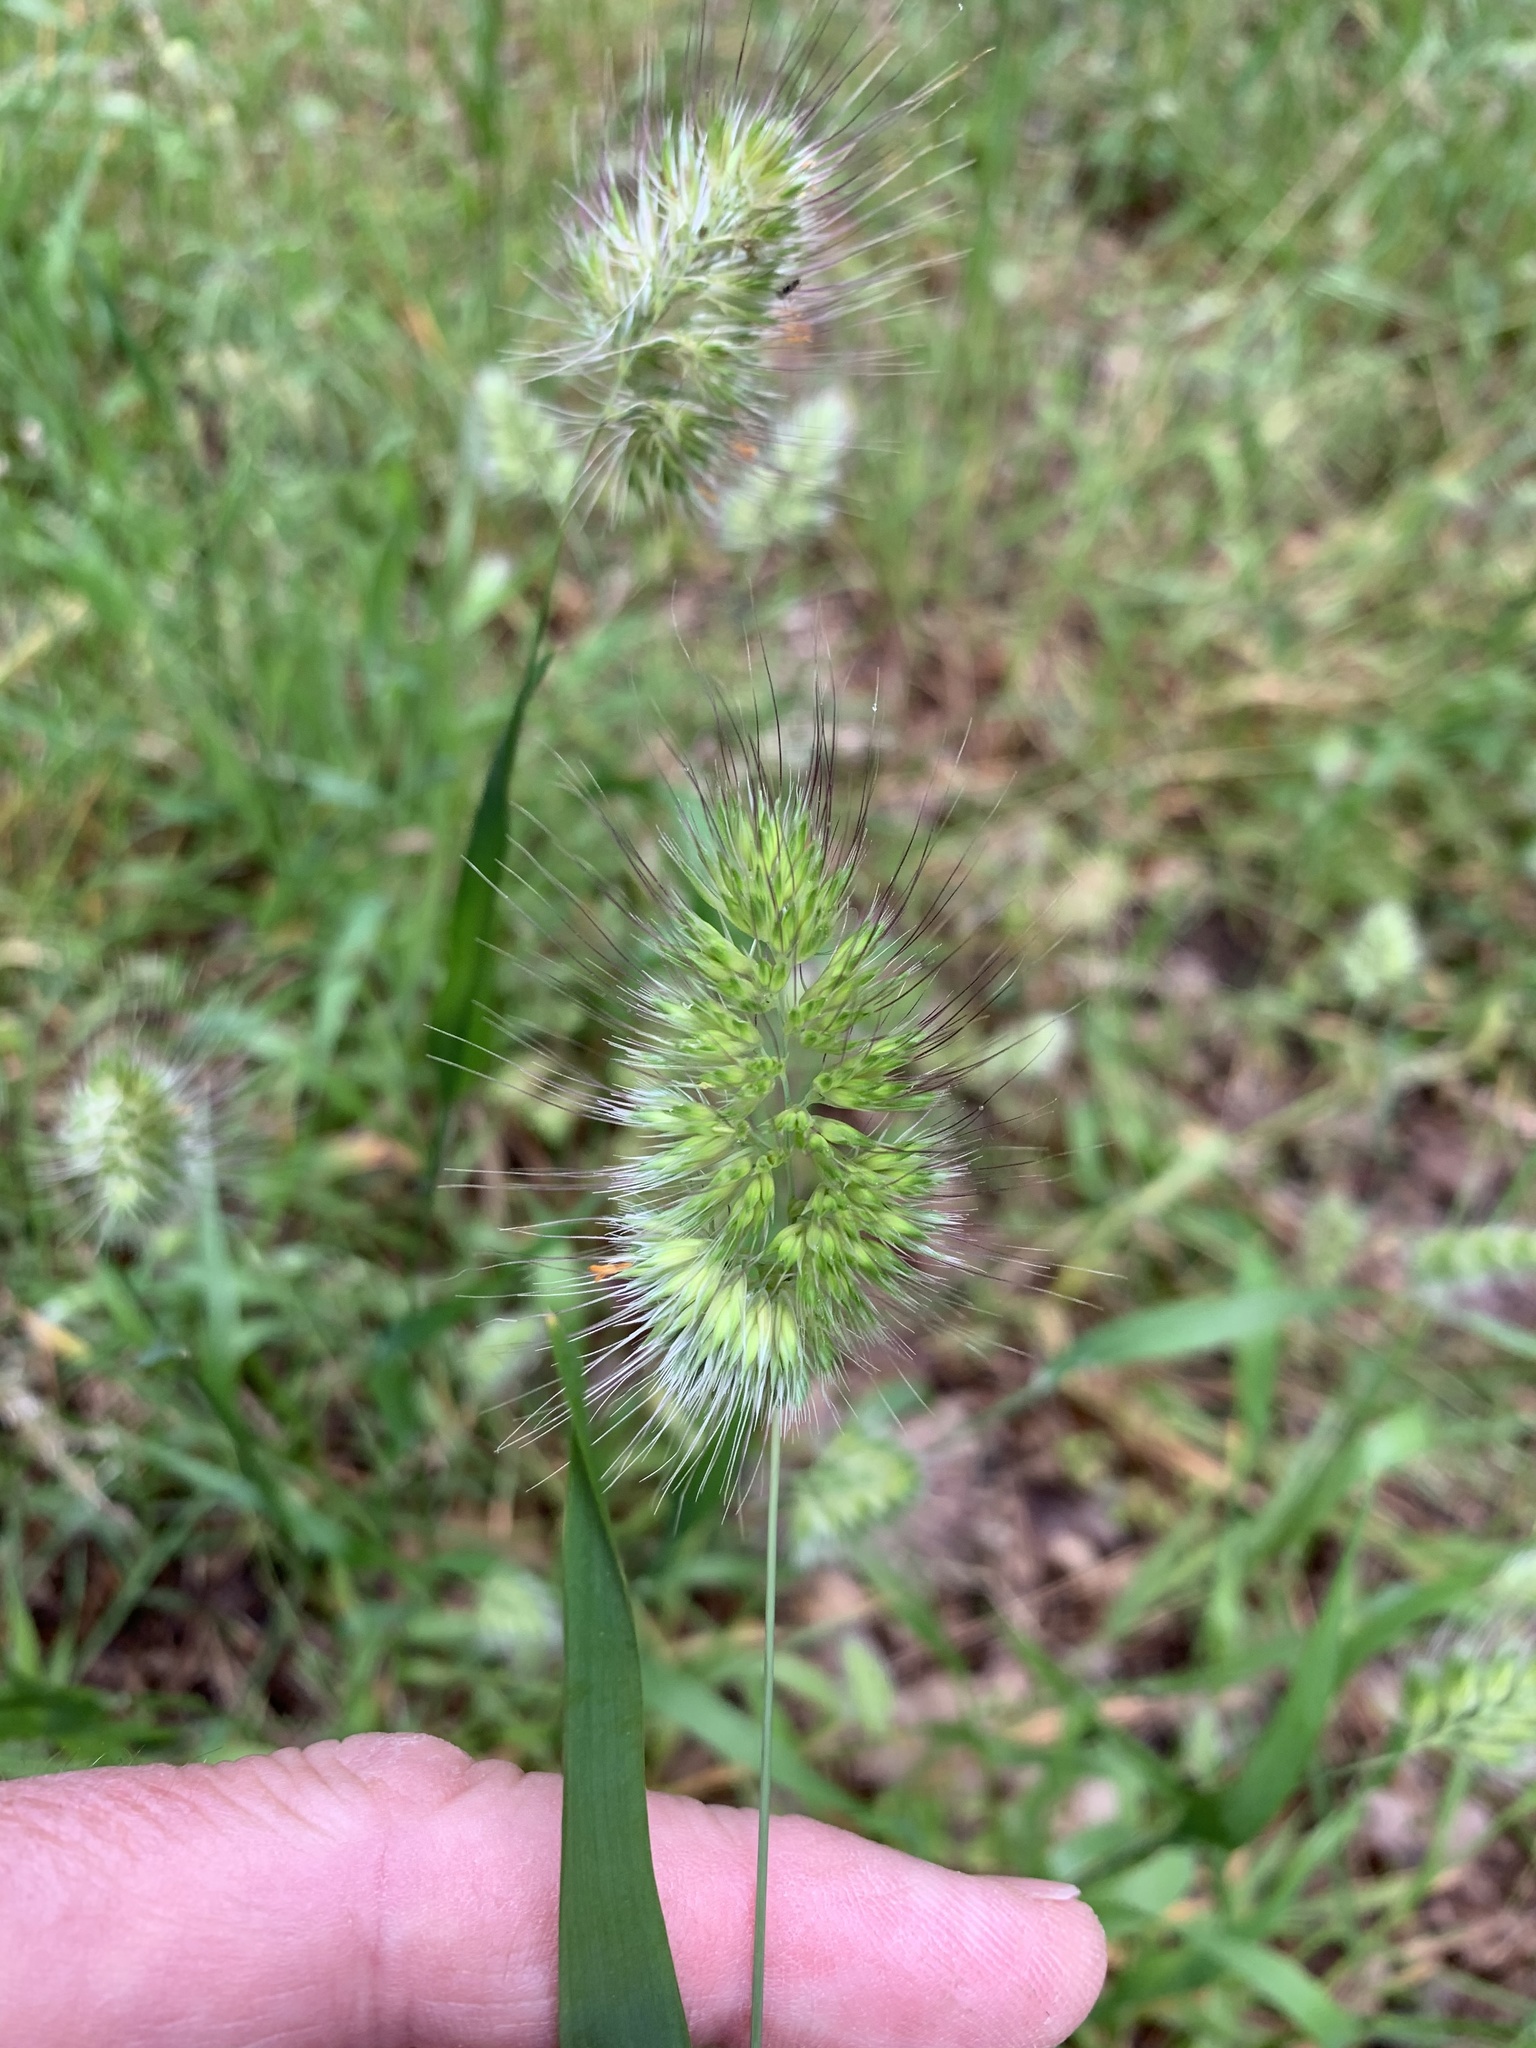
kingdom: Plantae
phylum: Tracheophyta
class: Liliopsida
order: Poales
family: Poaceae
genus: Cynosurus
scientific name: Cynosurus echinatus
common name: Rough dog's-tail
